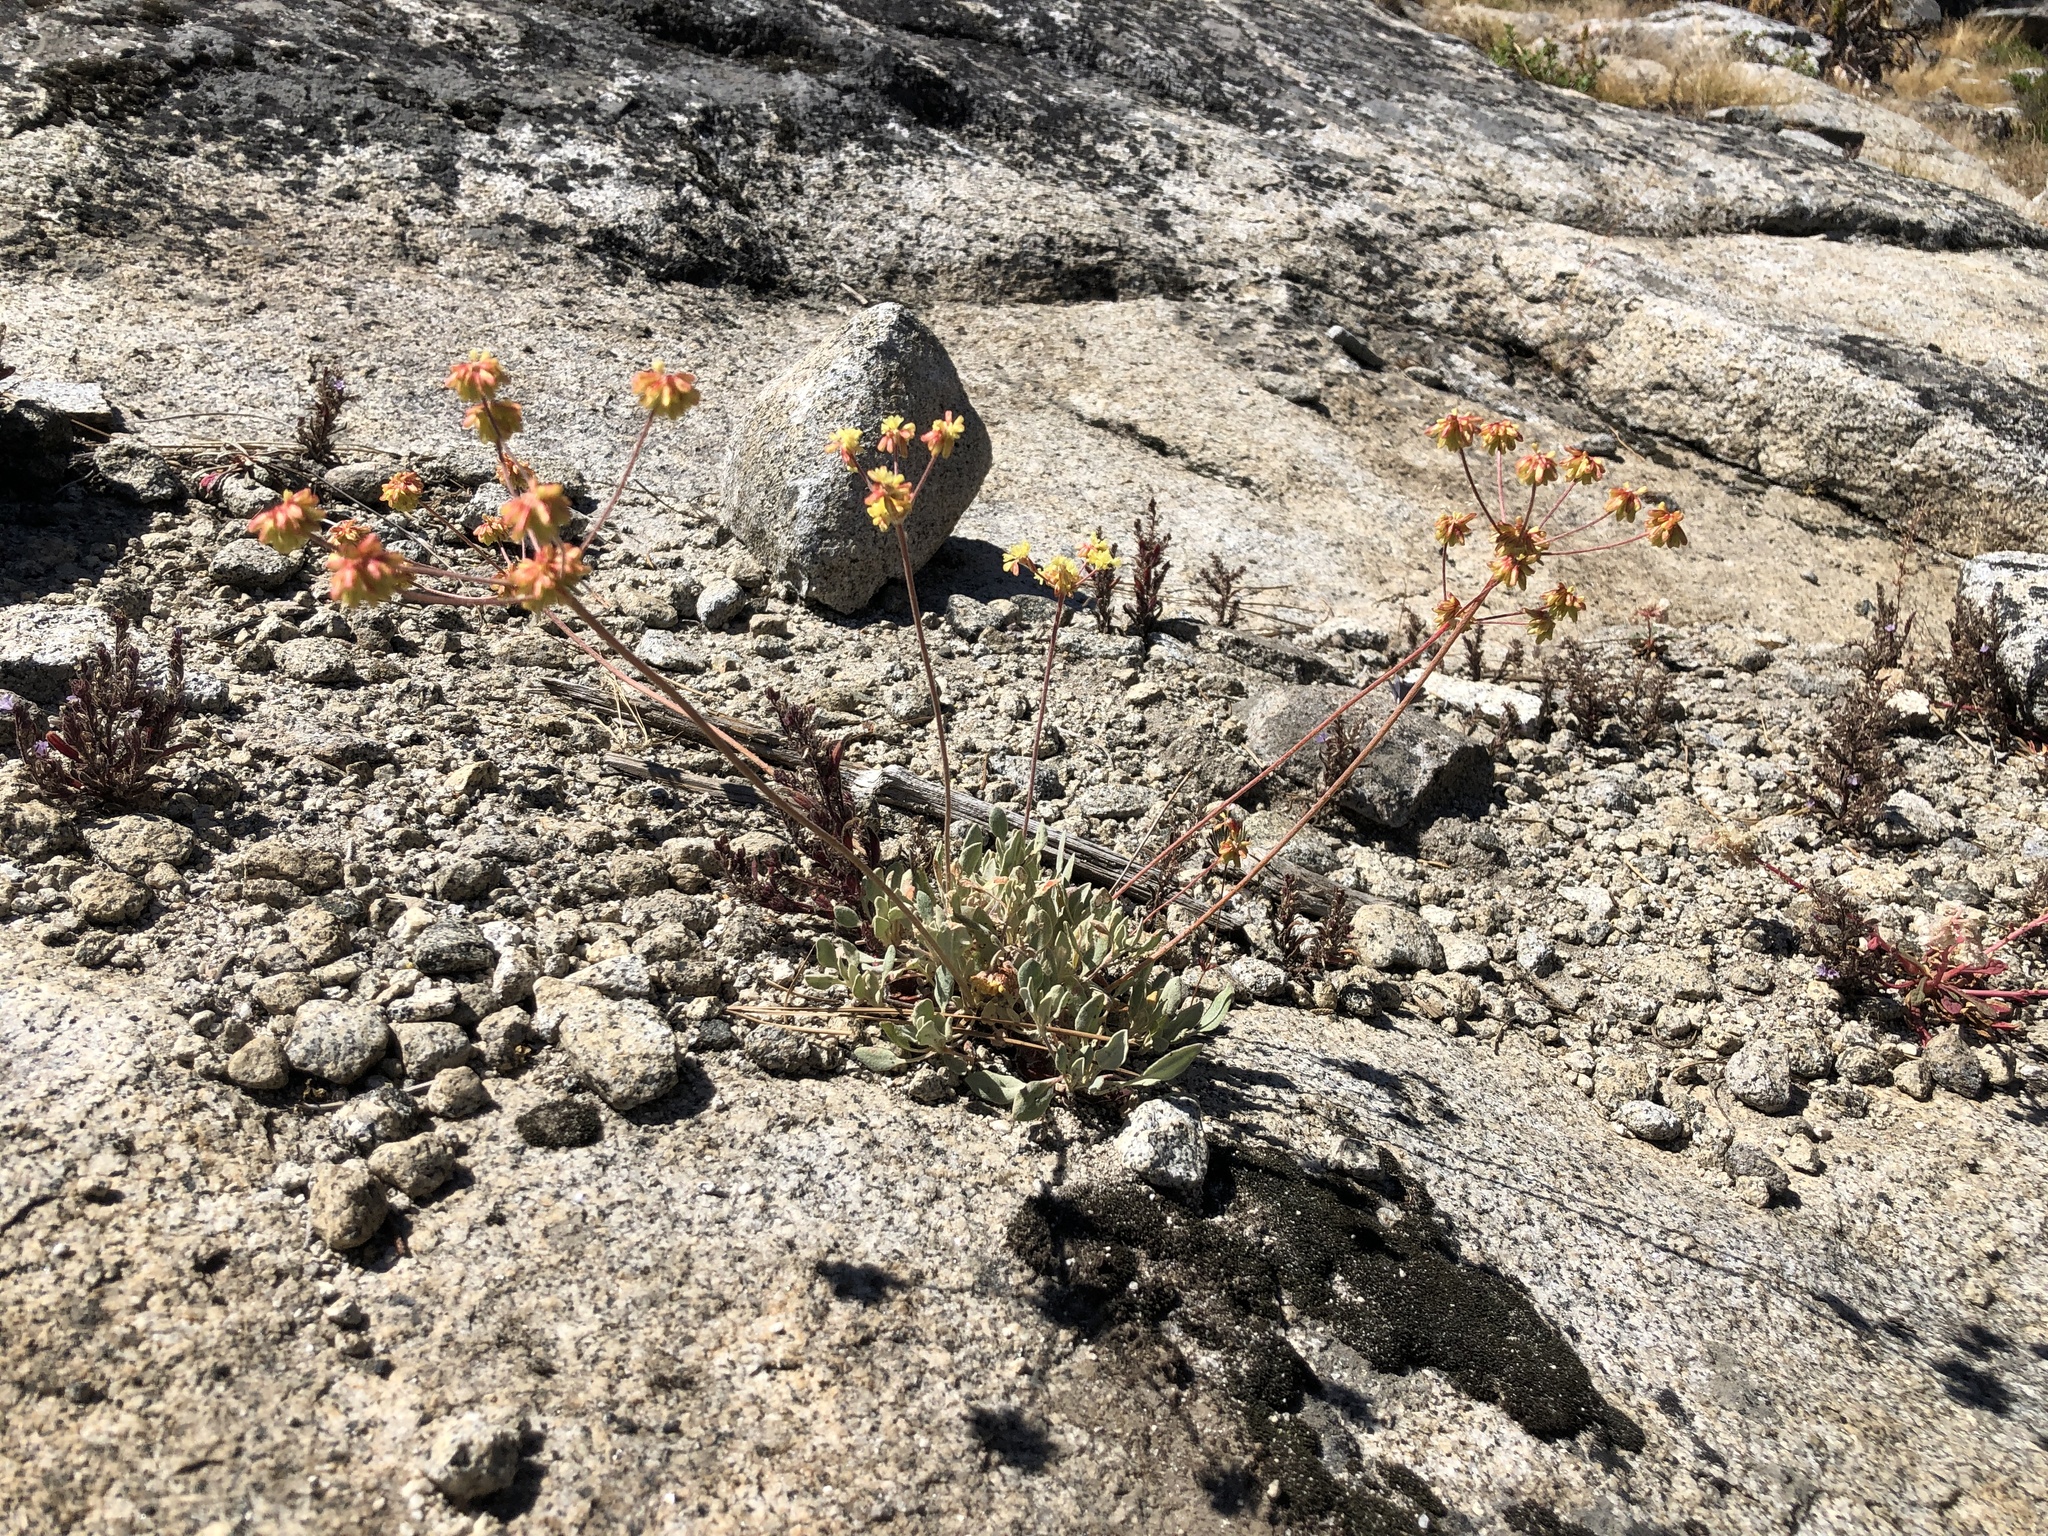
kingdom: Plantae
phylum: Tracheophyta
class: Magnoliopsida
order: Caryophyllales
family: Polygonaceae
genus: Eriogonum
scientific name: Eriogonum incanum
